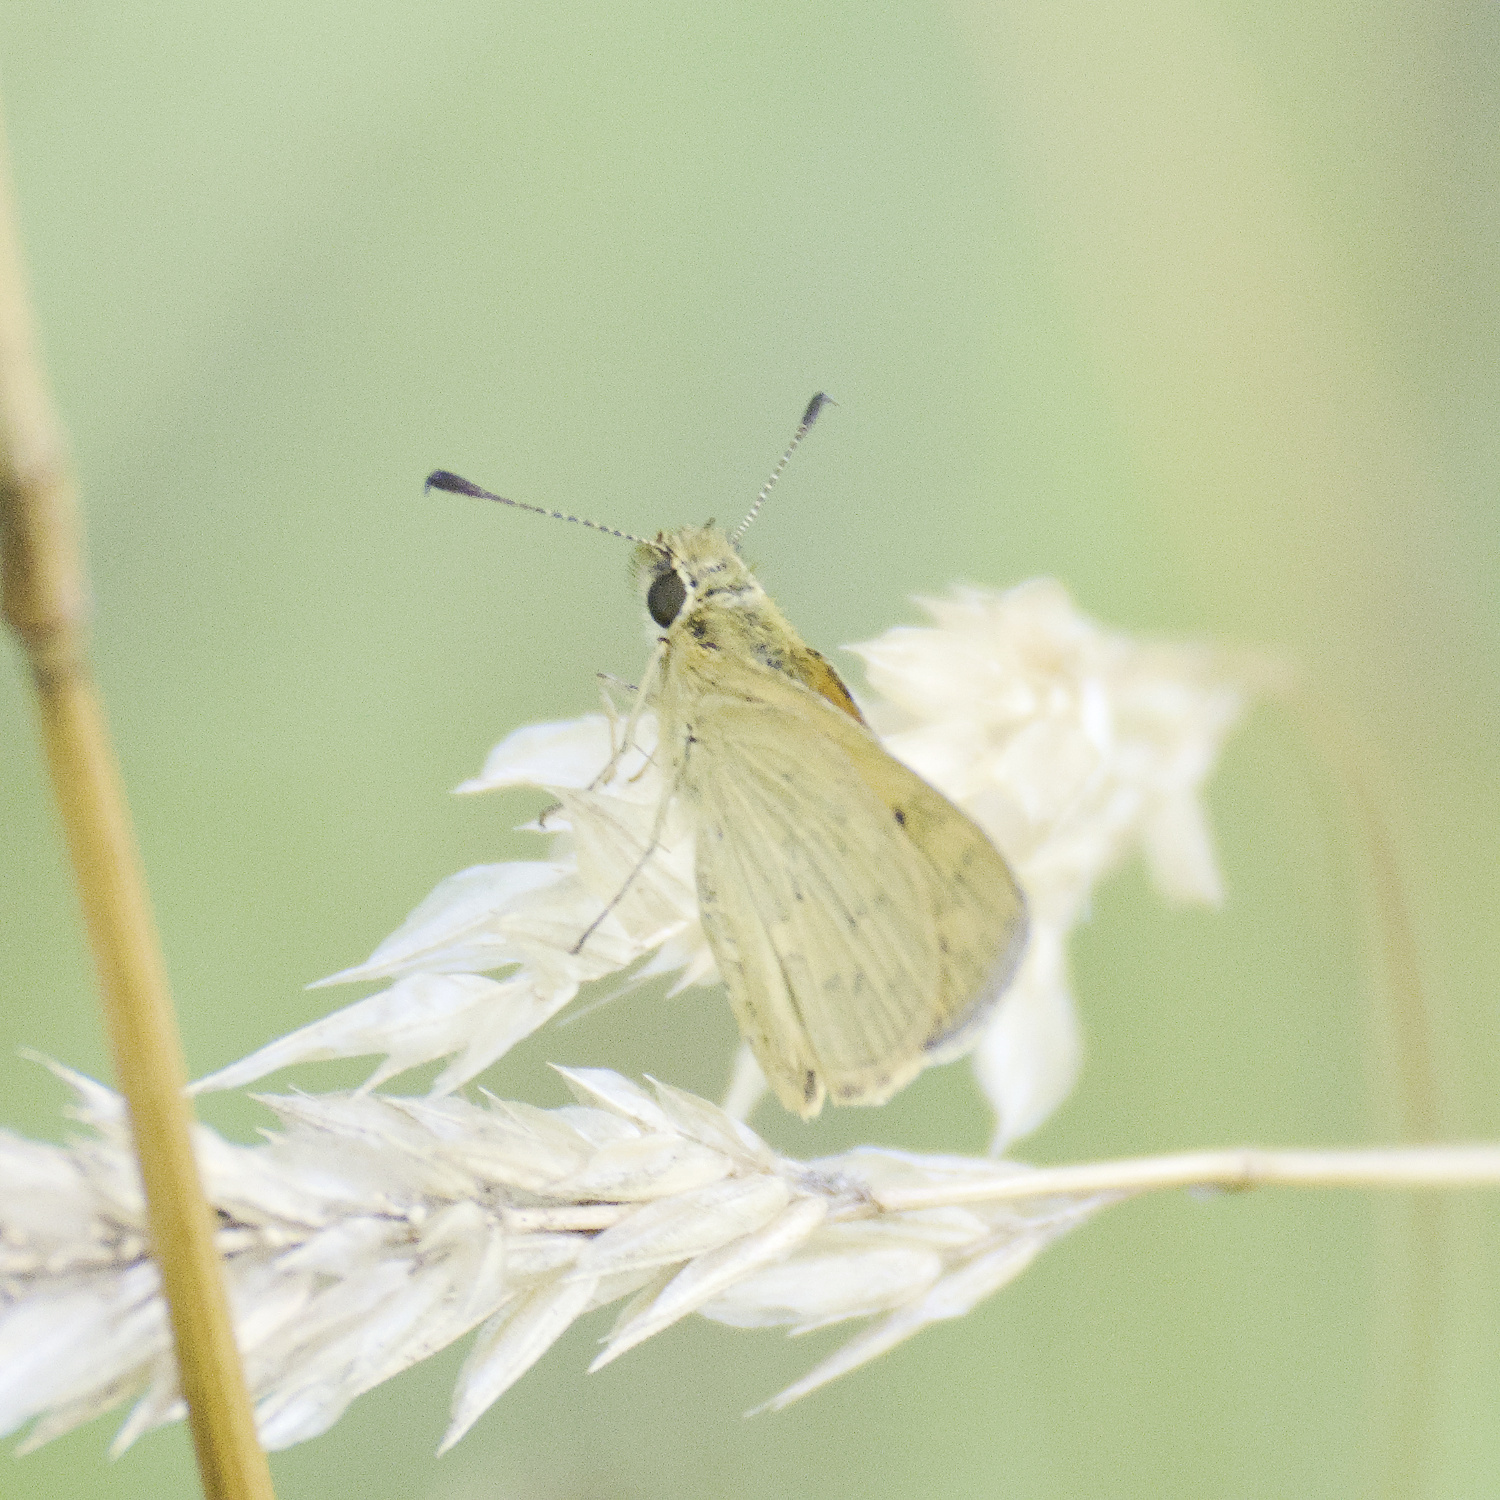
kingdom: Animalia
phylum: Arthropoda
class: Insecta
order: Lepidoptera
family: Hesperiidae
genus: Ocybadistes
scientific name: Ocybadistes walkeri
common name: Yellow-banded dart
